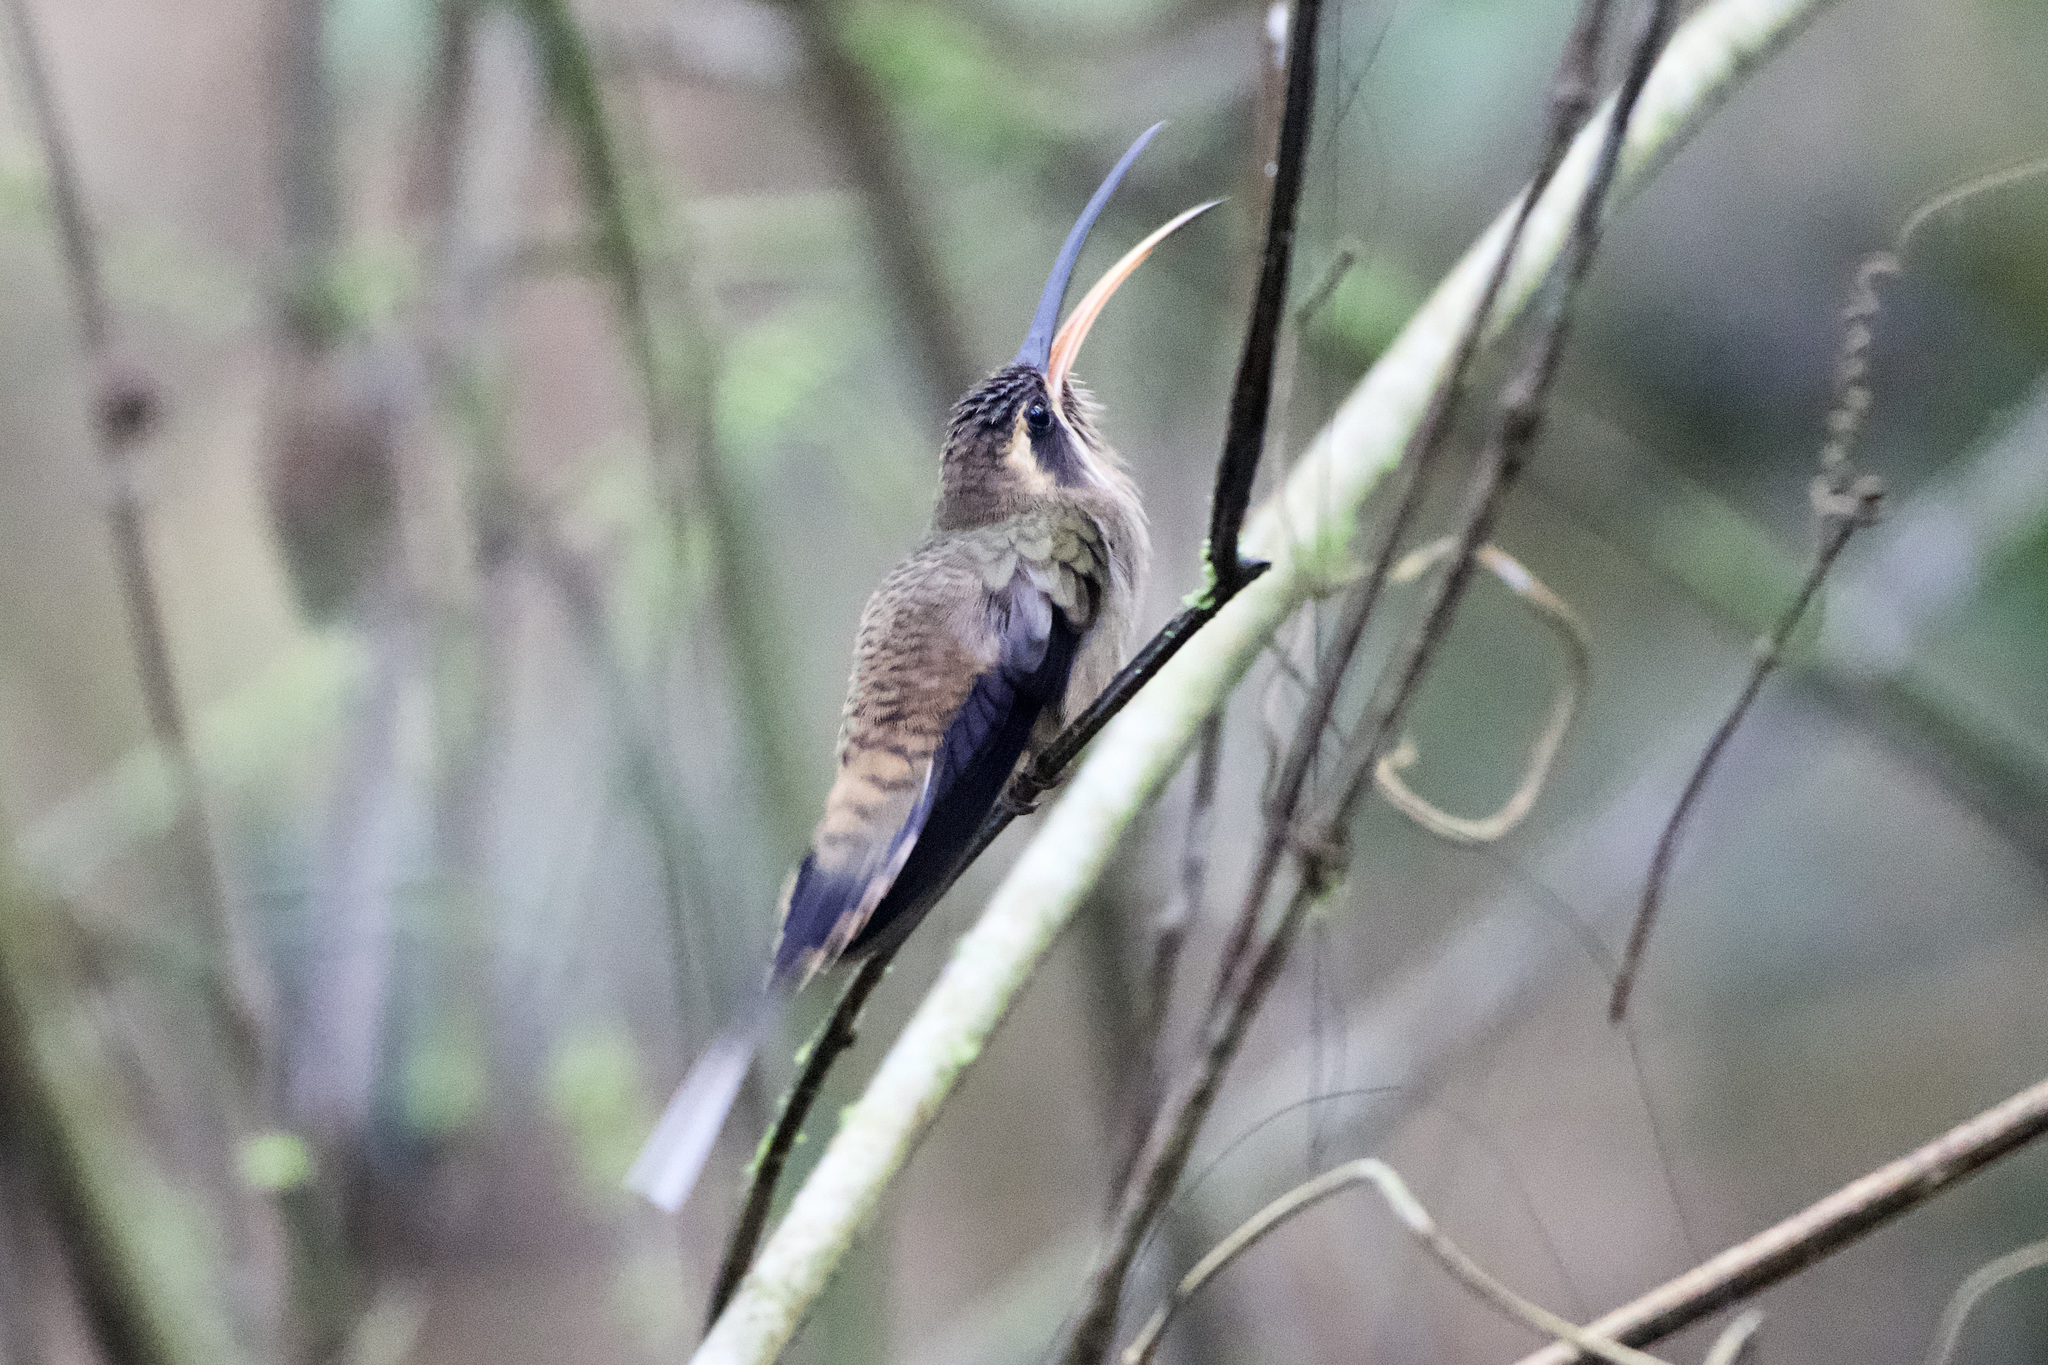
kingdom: Animalia
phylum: Chordata
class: Aves
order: Apodiformes
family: Trochilidae
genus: Phaethornis
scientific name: Phaethornis longirostris
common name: Long-billed hermit
